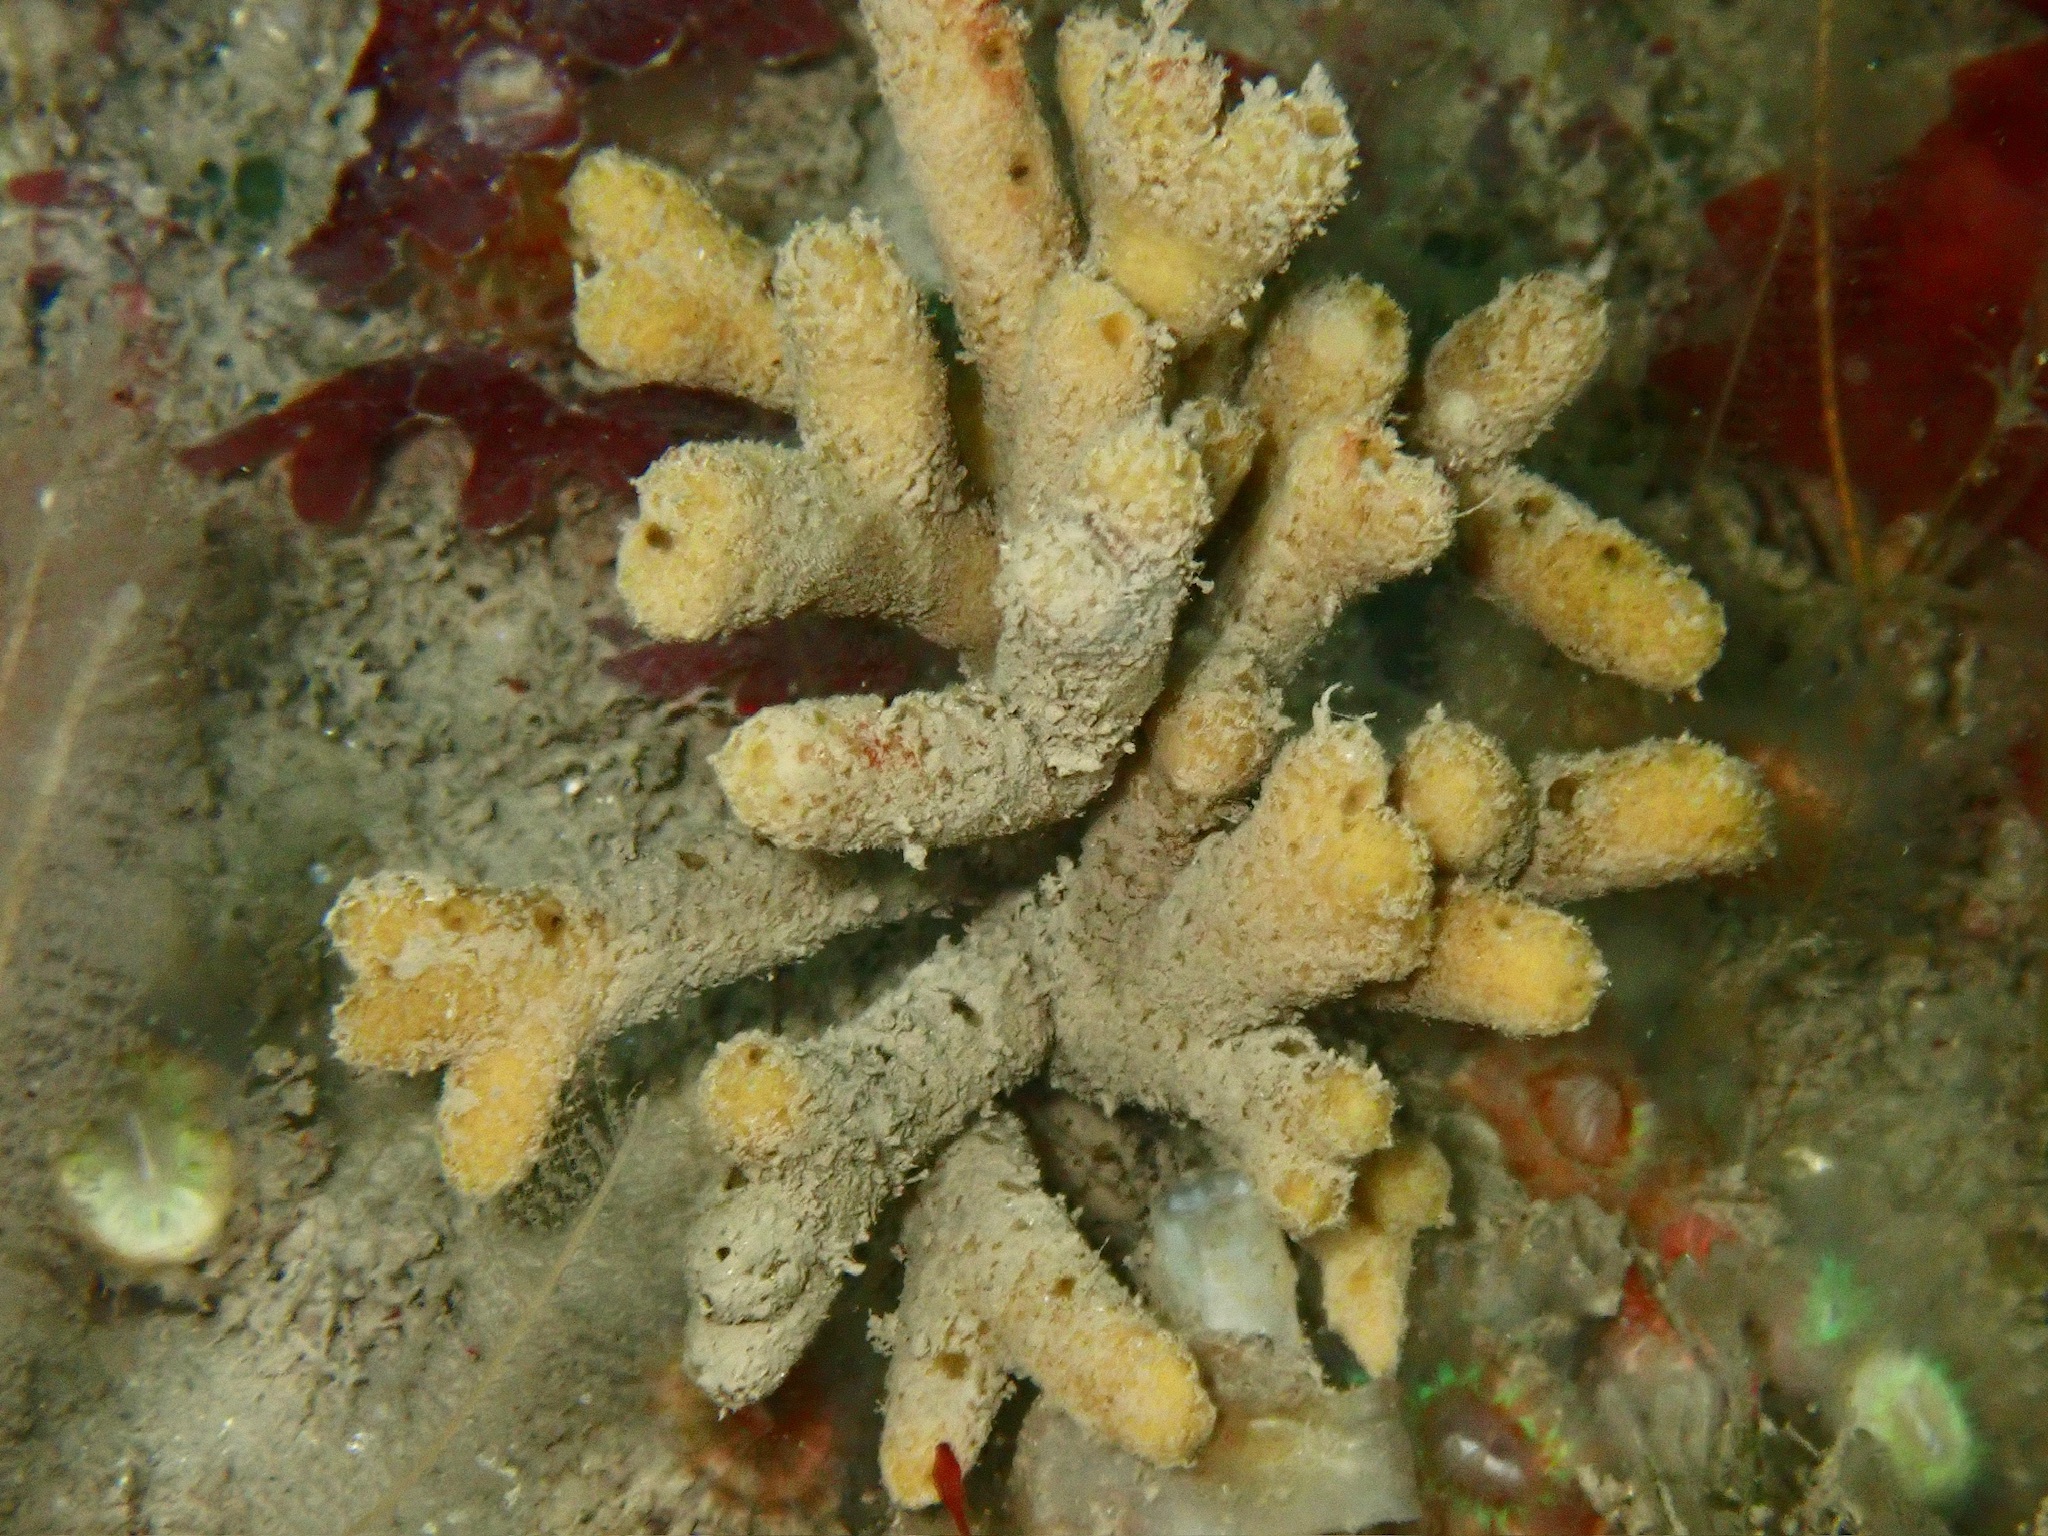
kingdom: Animalia
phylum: Porifera
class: Demospongiae
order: Axinellida
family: Stelligeridae
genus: Stelligera
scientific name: Stelligera stuposa
